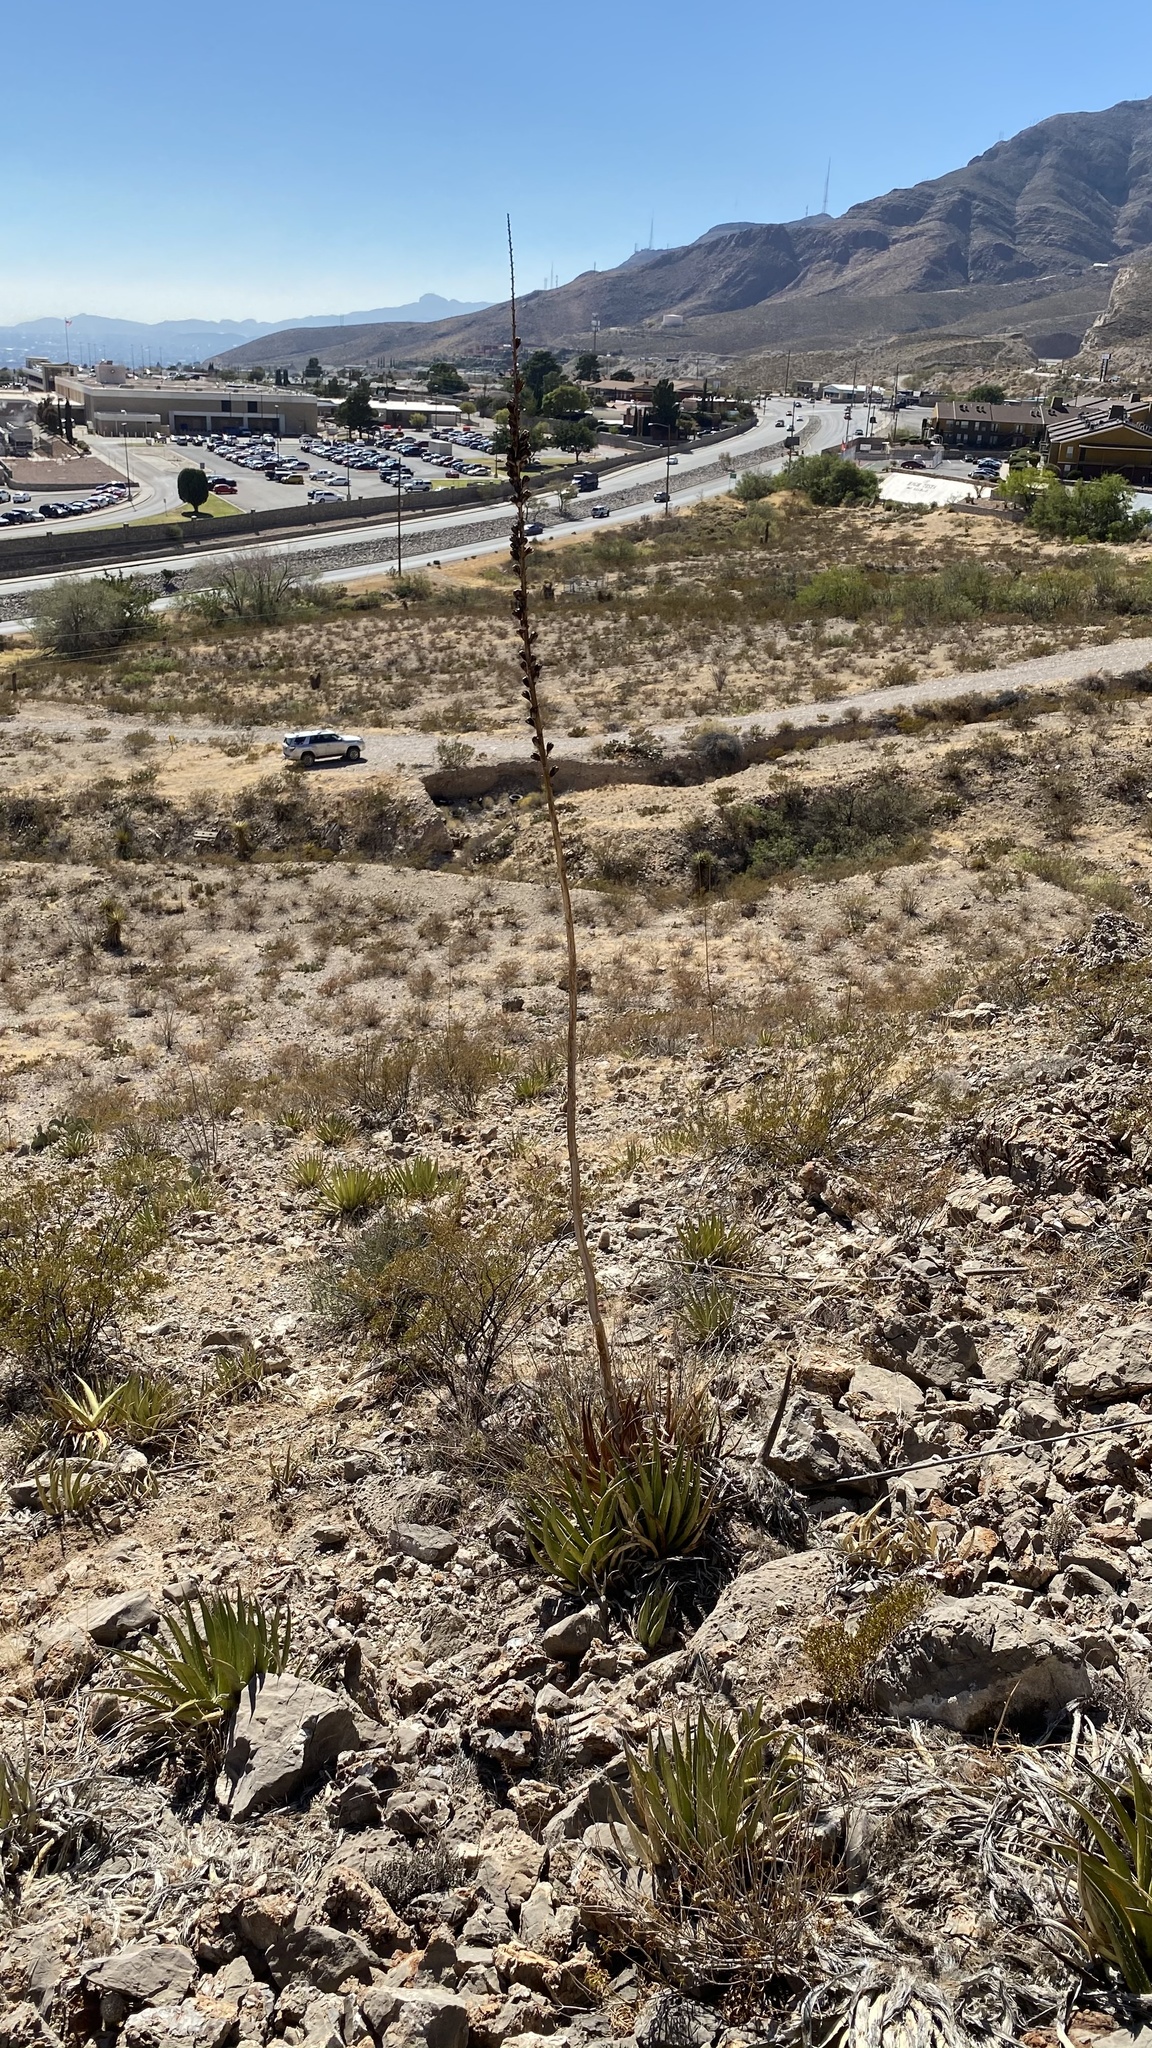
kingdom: Plantae
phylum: Tracheophyta
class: Liliopsida
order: Asparagales
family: Asparagaceae
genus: Agave
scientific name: Agave lechuguilla
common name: Lecheguilla agave
